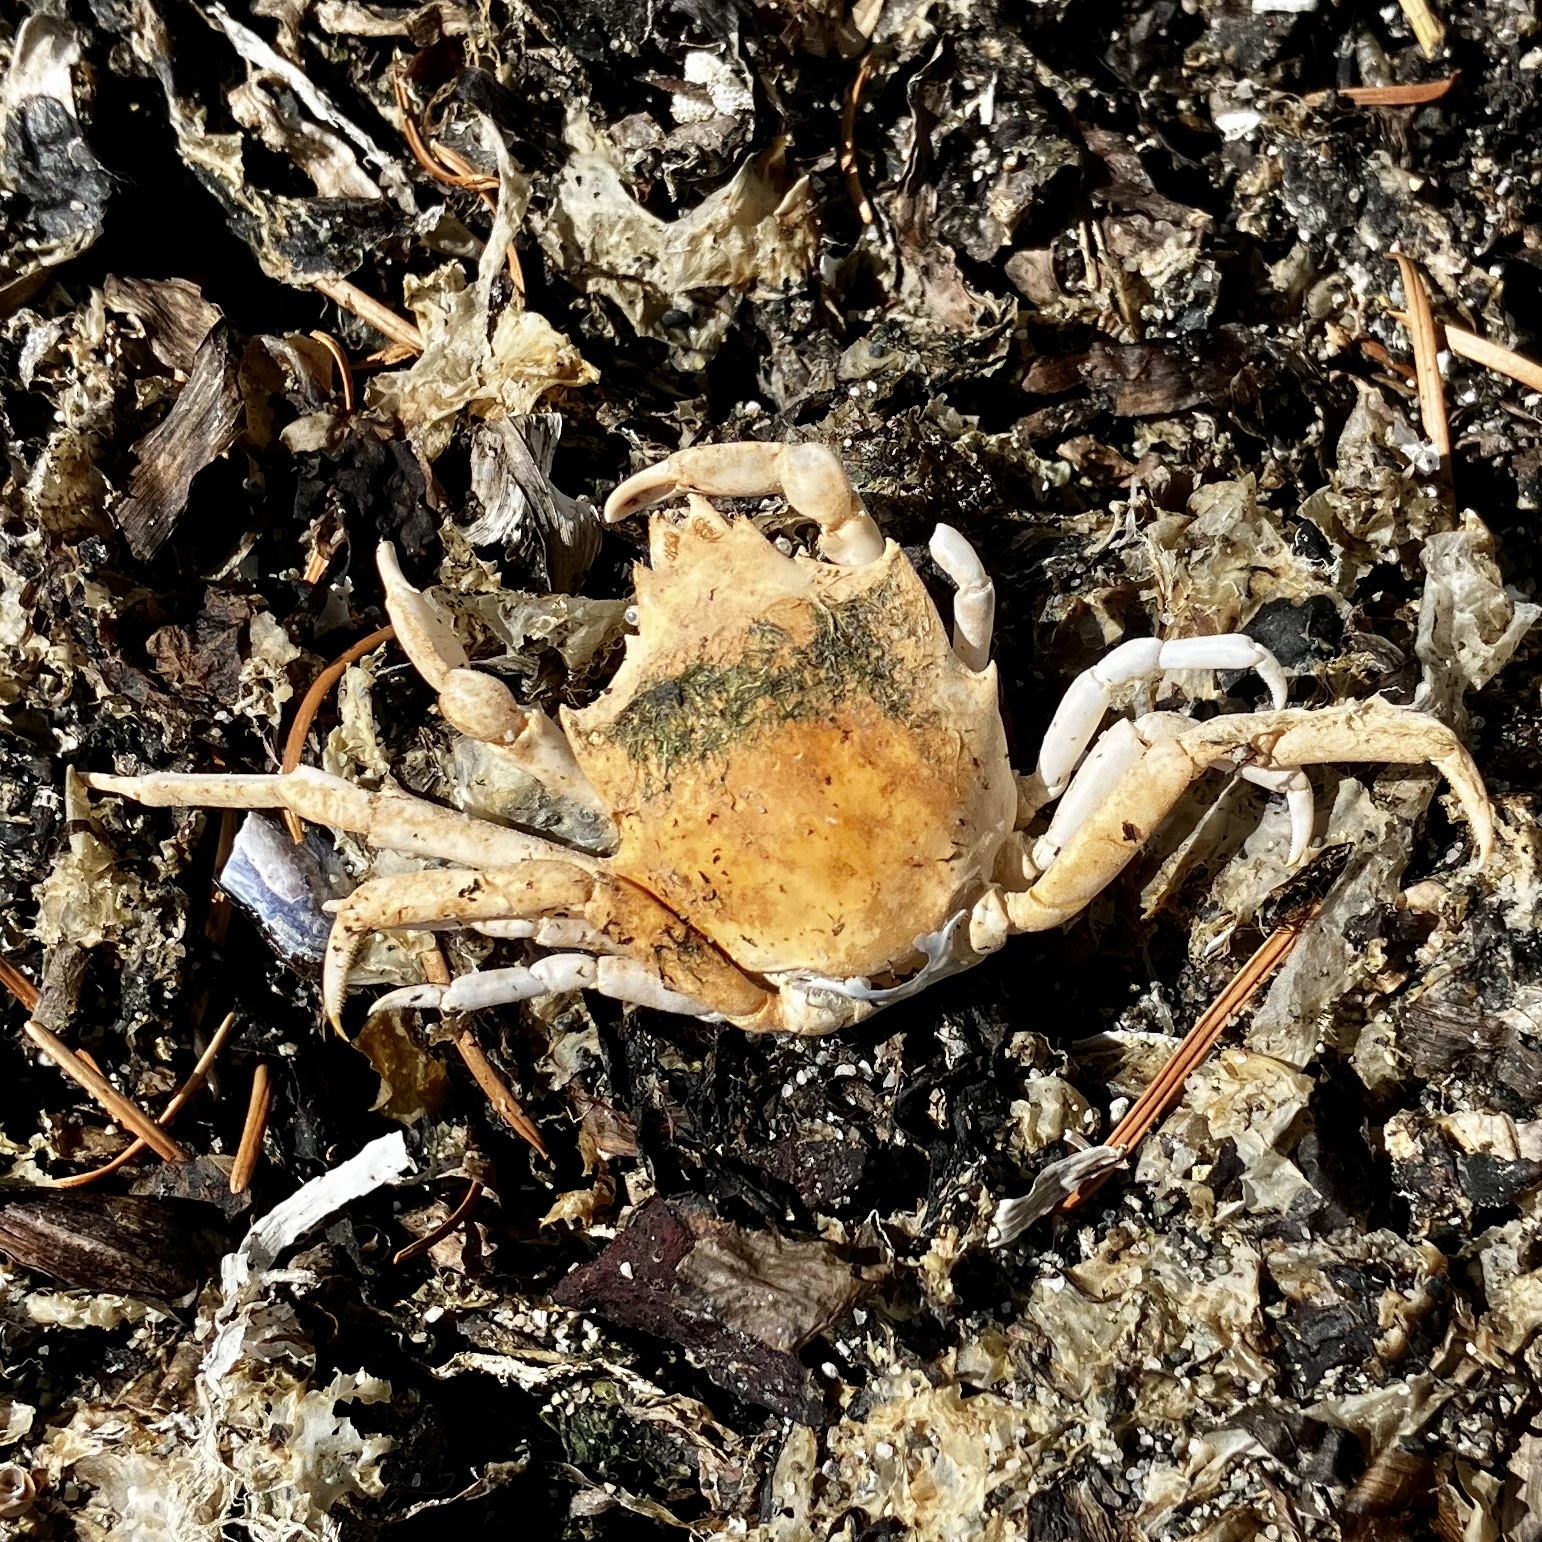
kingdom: Animalia
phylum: Arthropoda
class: Malacostraca
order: Decapoda
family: Epialtidae
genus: Pugettia
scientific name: Pugettia producta
